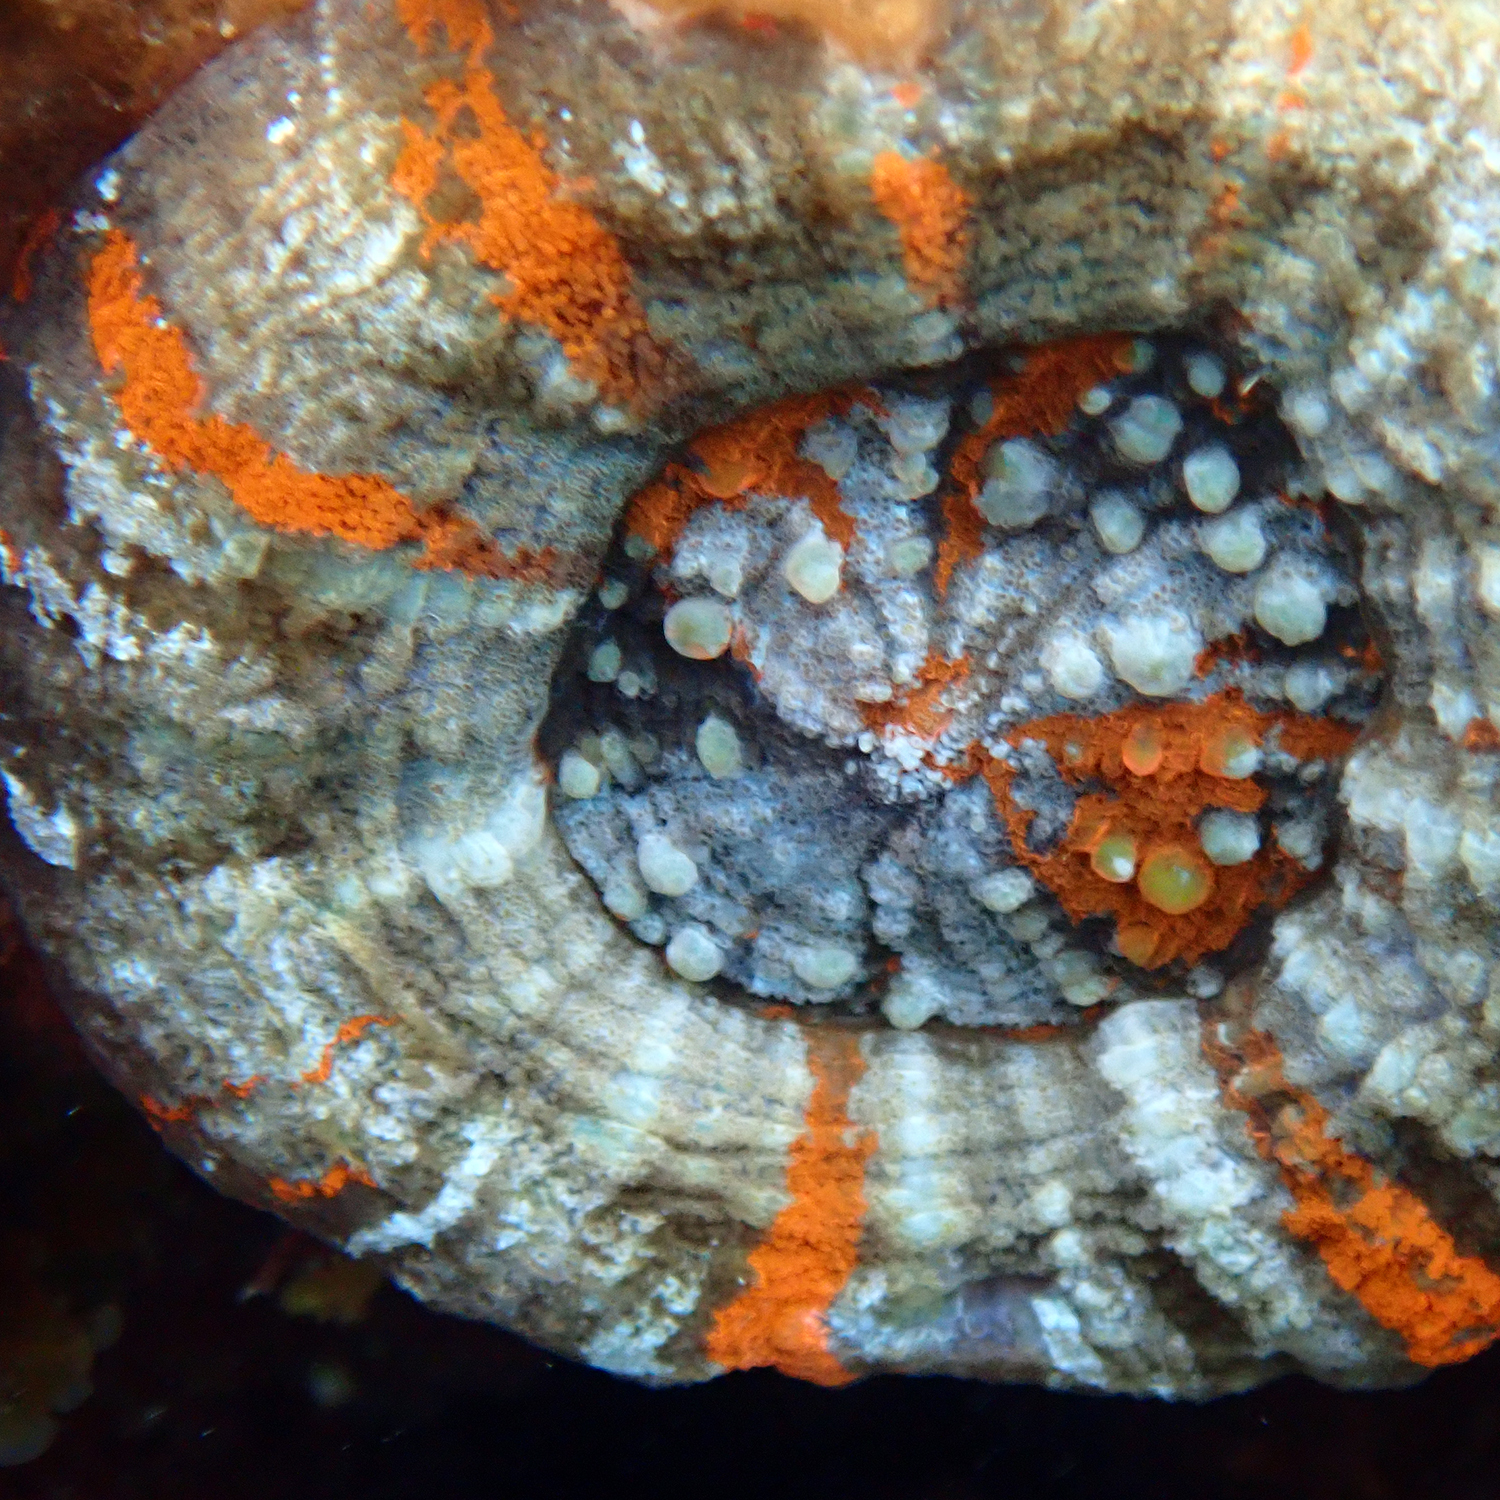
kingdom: Animalia
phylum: Cnidaria
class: Anthozoa
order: Scleractinia
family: Lobophylliidae
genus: Homophyllia
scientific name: Homophyllia australis
